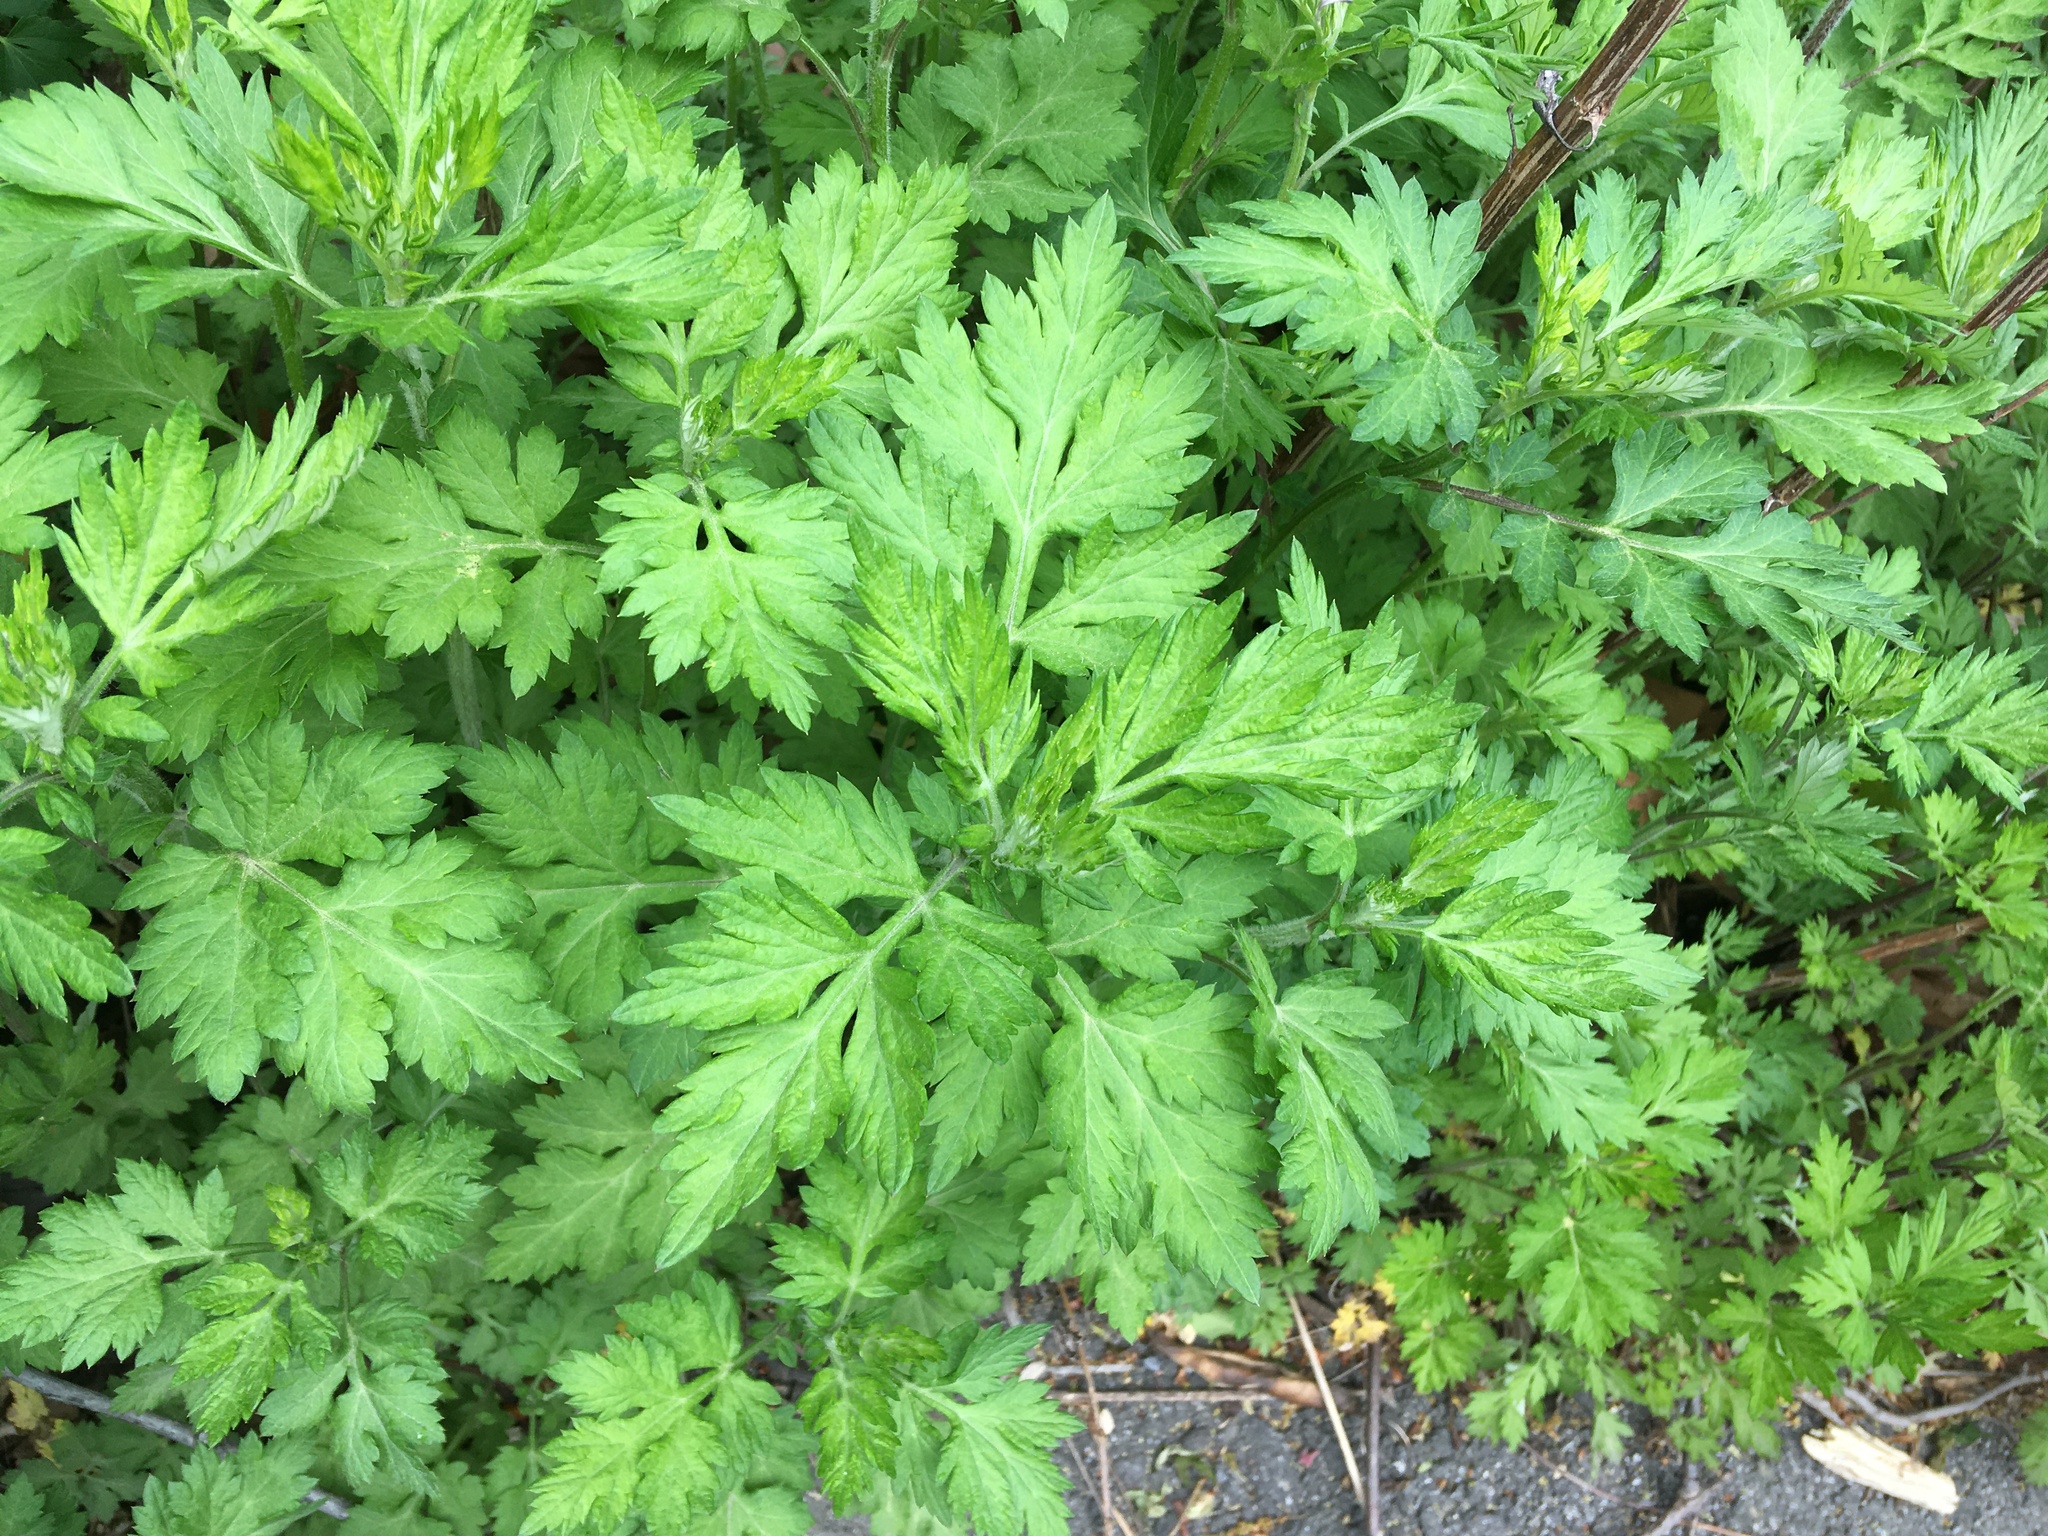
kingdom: Plantae
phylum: Tracheophyta
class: Magnoliopsida
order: Asterales
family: Asteraceae
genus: Artemisia
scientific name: Artemisia vulgaris
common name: Mugwort
